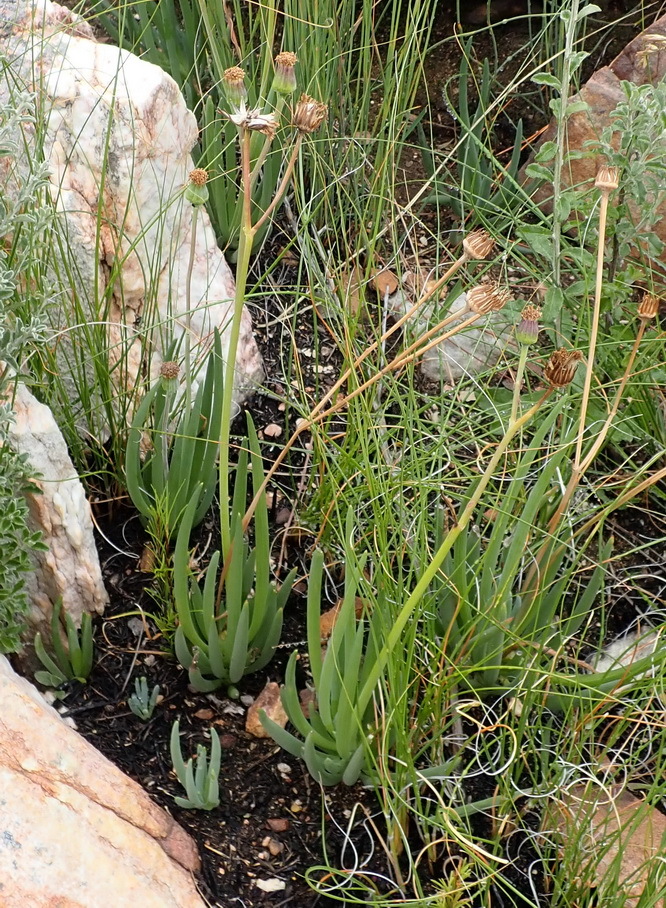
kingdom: Plantae
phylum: Tracheophyta
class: Magnoliopsida
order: Asterales
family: Asteraceae
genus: Curio
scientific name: Curio talinoides
